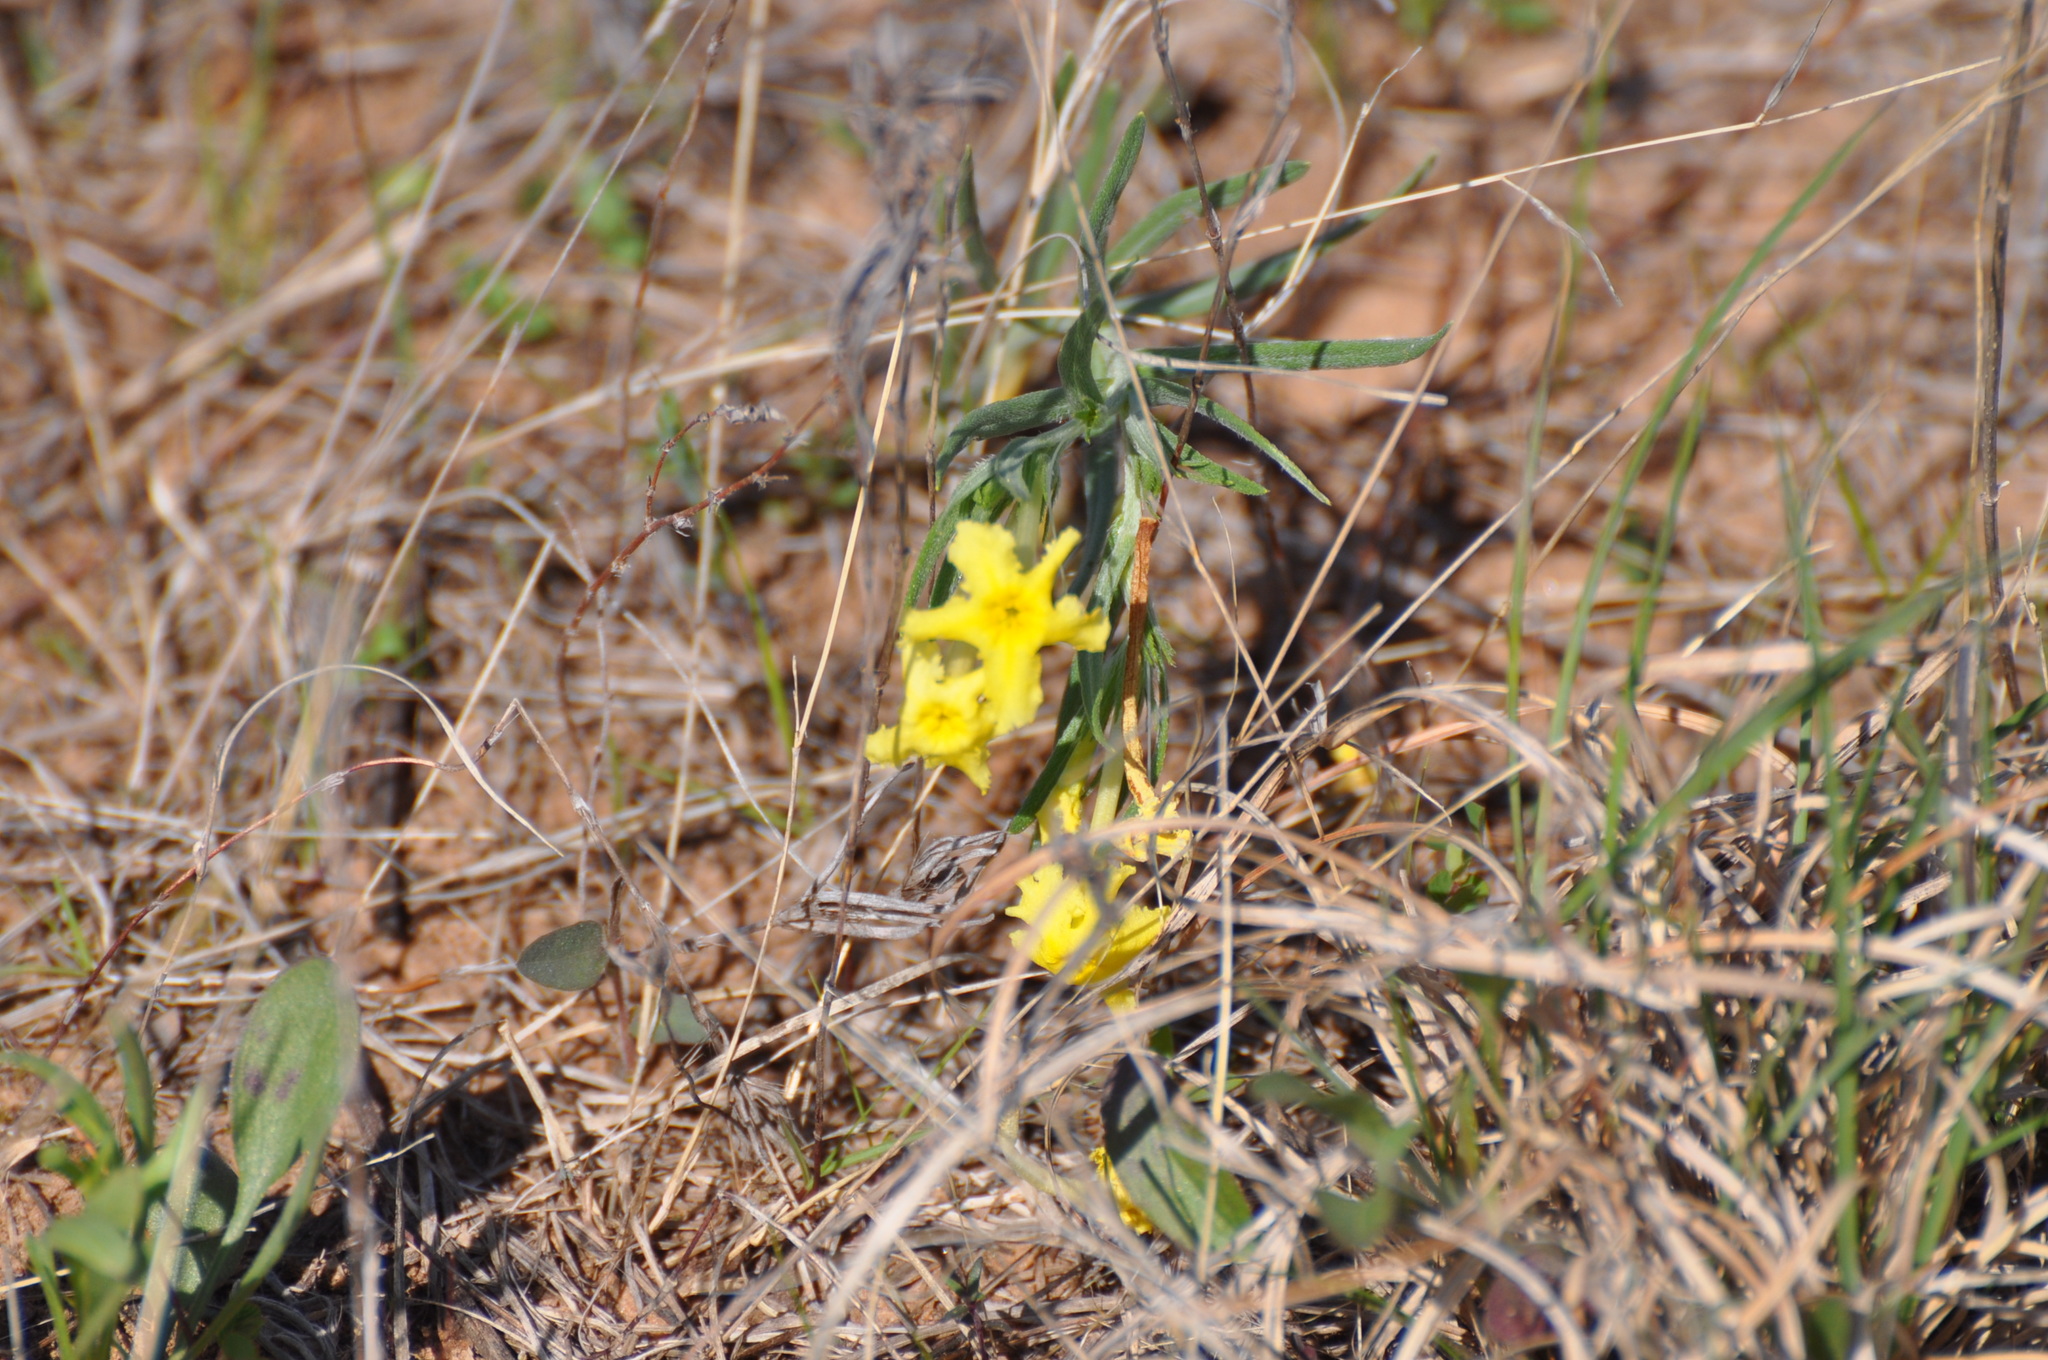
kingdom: Plantae
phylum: Tracheophyta
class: Magnoliopsida
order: Boraginales
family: Boraginaceae
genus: Lithospermum
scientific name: Lithospermum incisum
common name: Fringed gromwell
